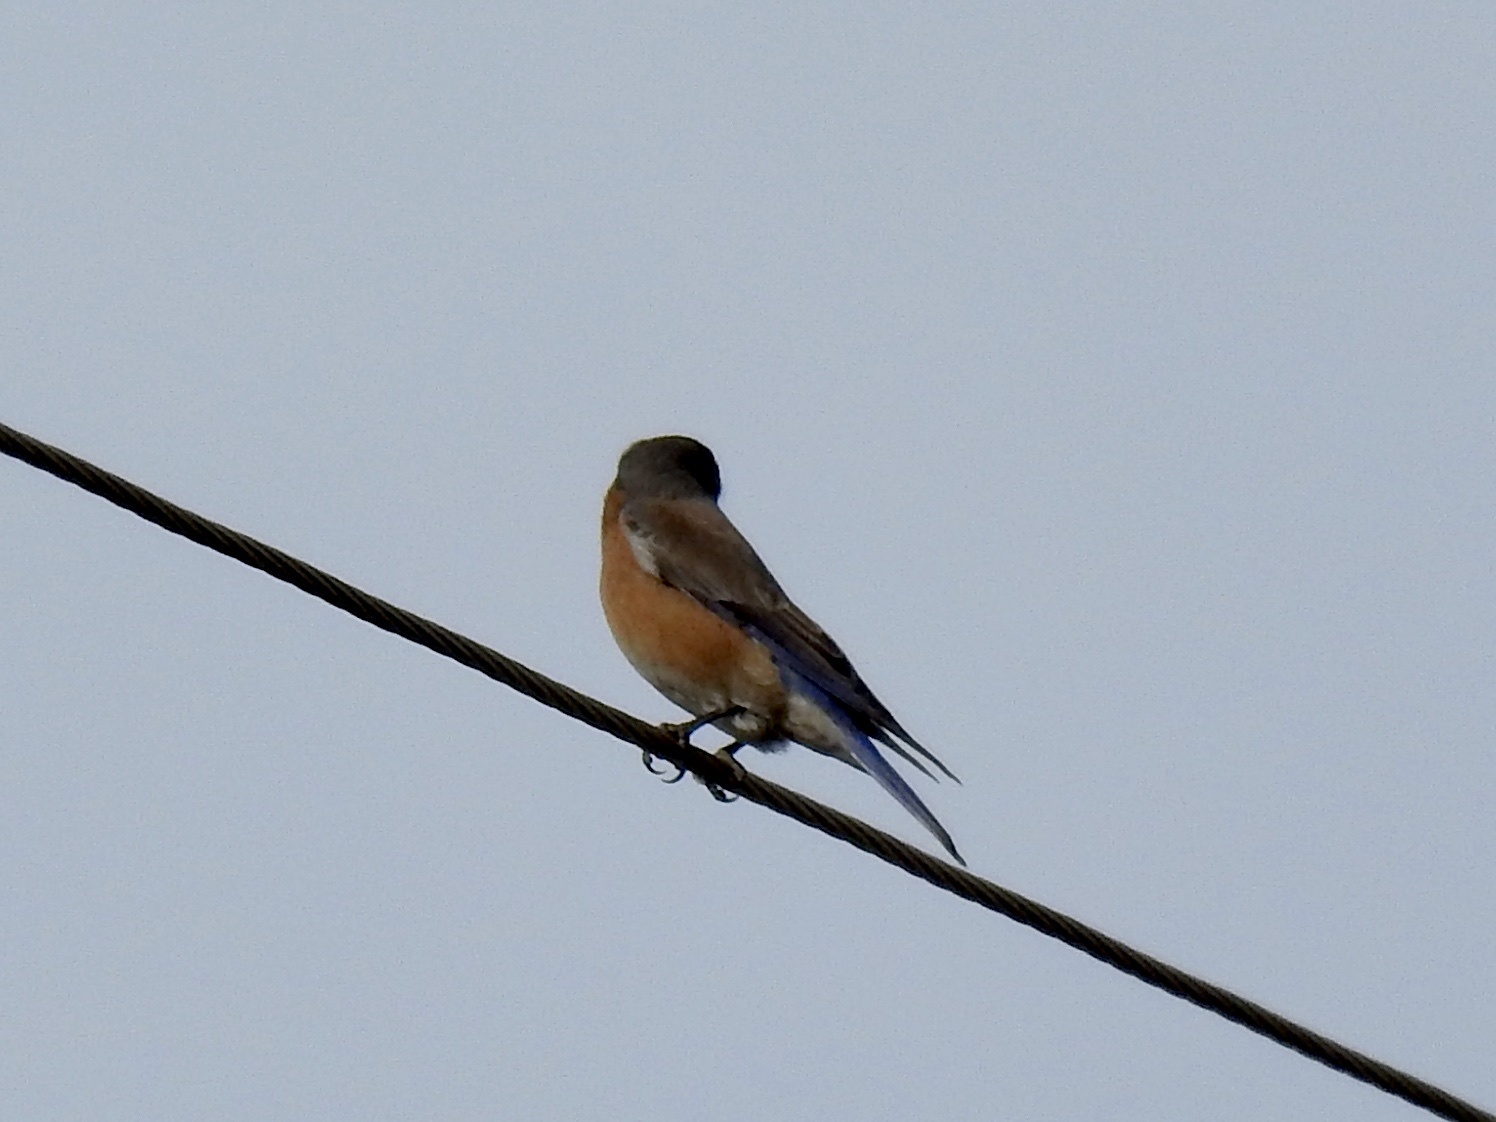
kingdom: Animalia
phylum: Chordata
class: Aves
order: Passeriformes
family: Turdidae
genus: Sialia
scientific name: Sialia mexicana
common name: Western bluebird
